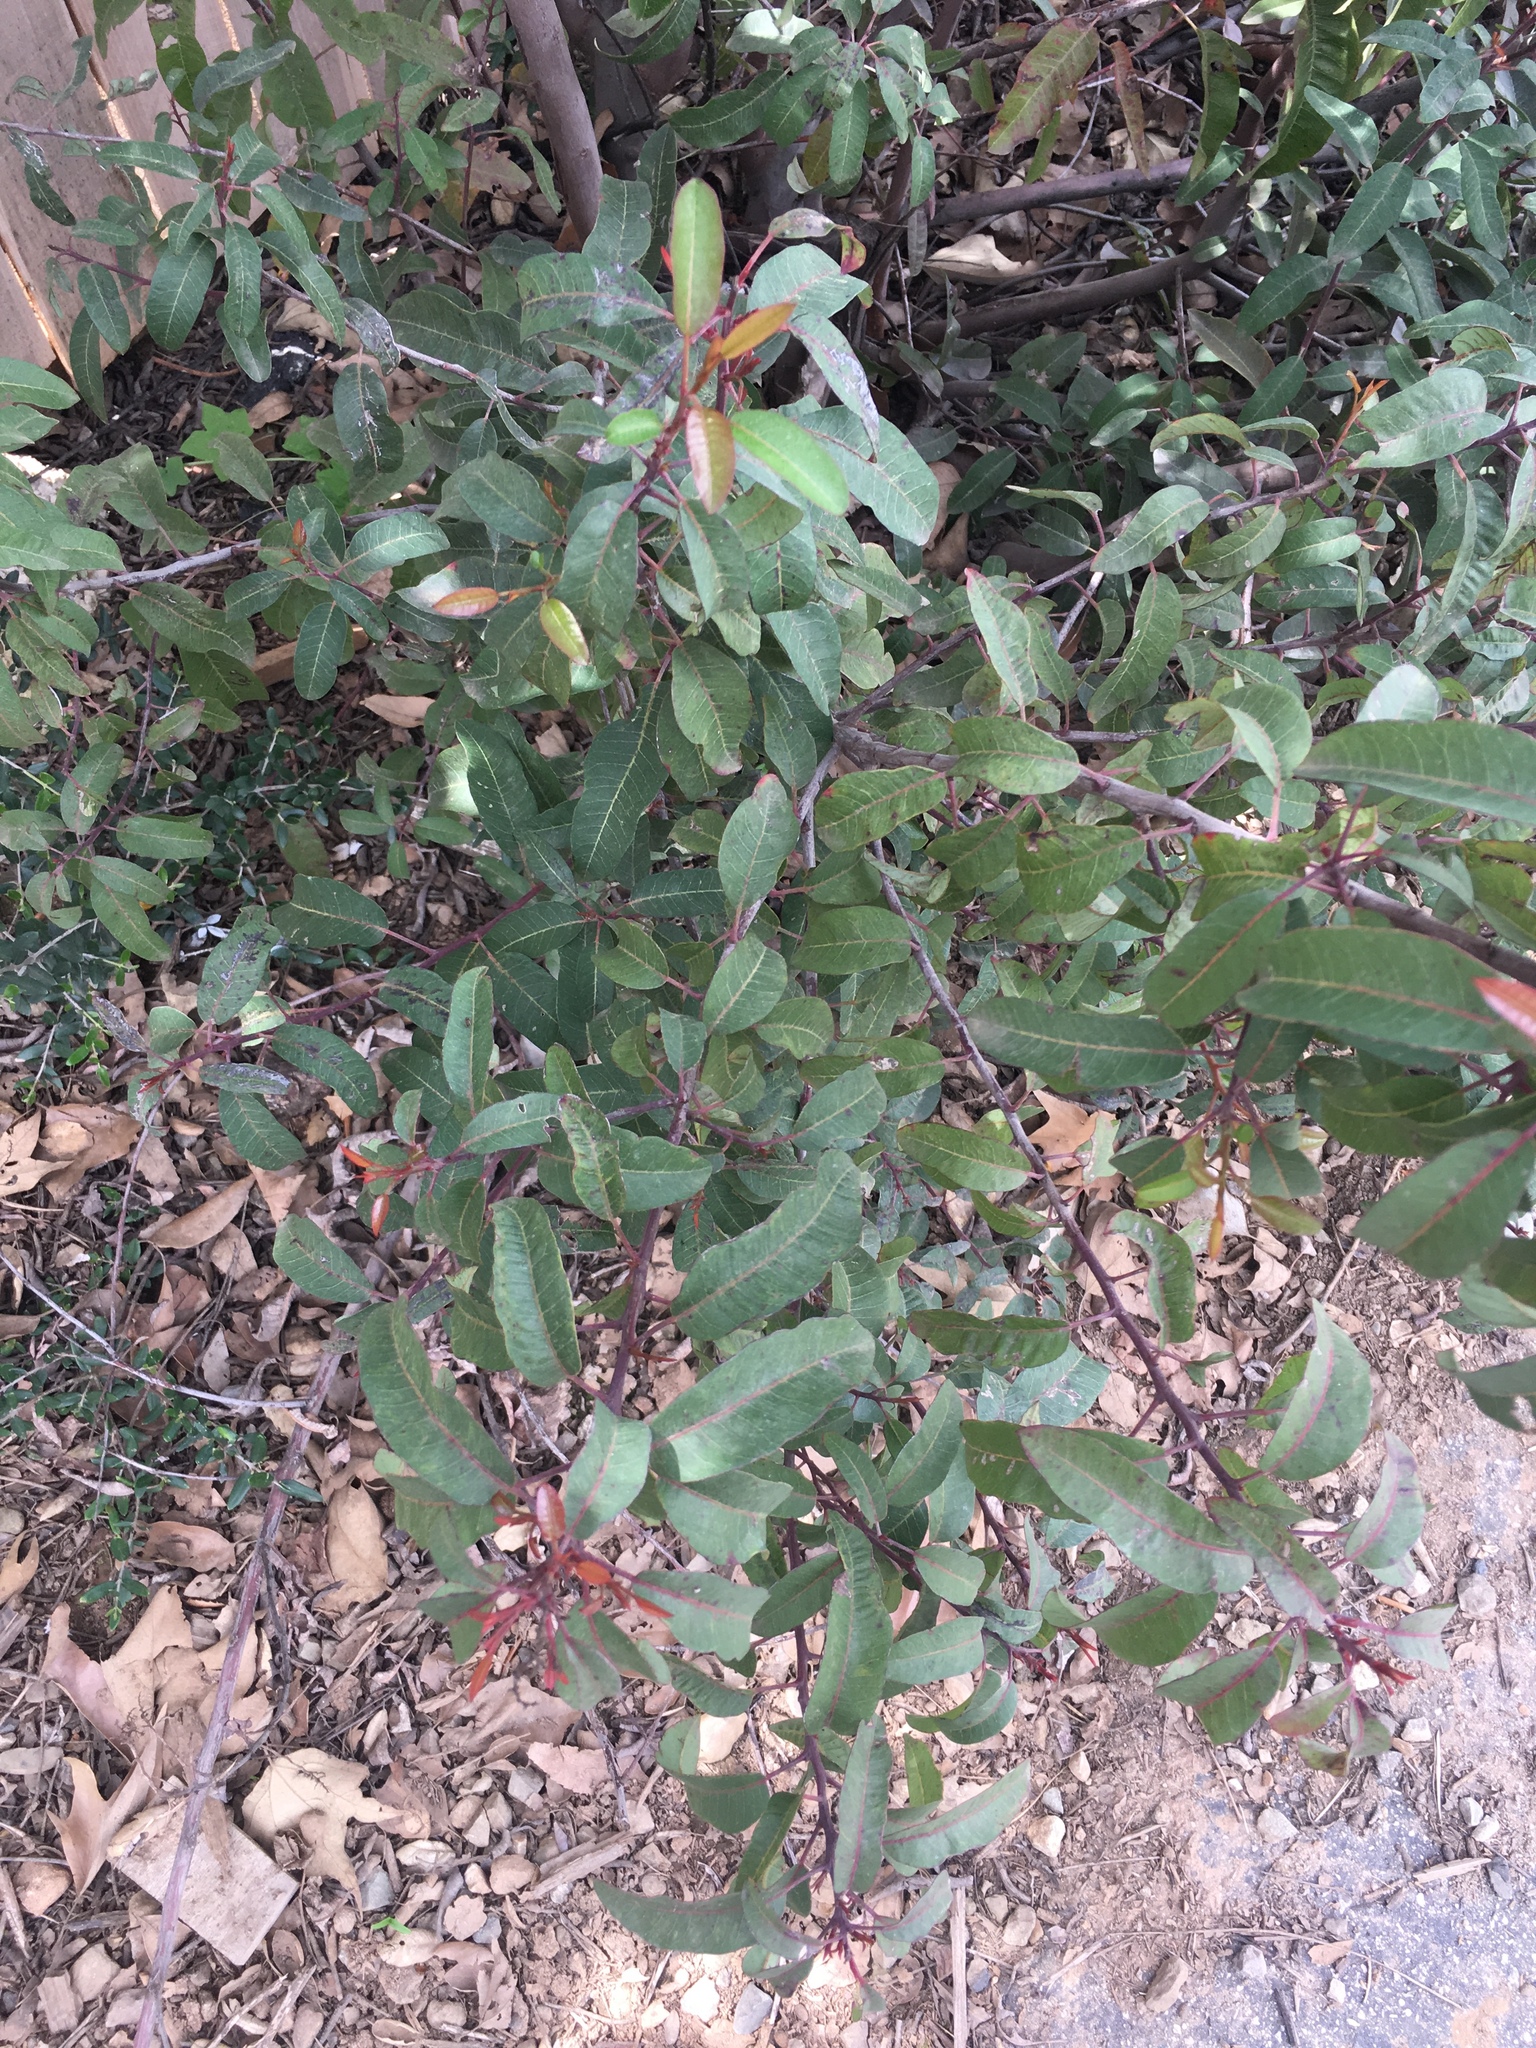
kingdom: Plantae
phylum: Tracheophyta
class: Magnoliopsida
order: Sapindales
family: Anacardiaceae
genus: Malosma
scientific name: Malosma laurina
